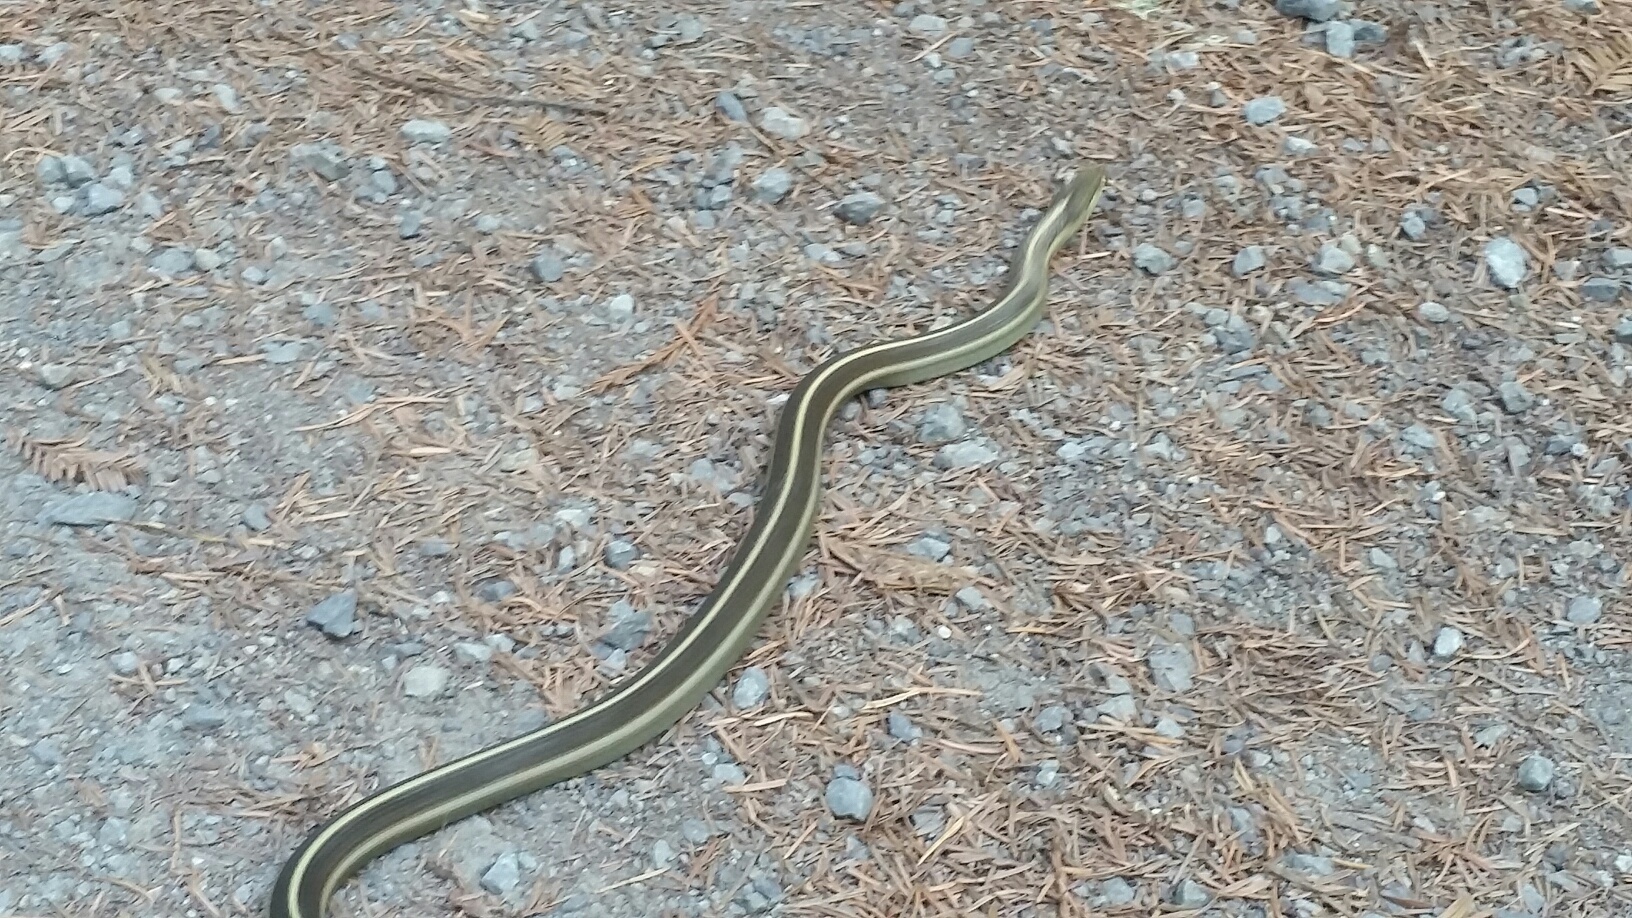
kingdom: Animalia
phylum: Chordata
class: Squamata
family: Colubridae
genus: Thamnophis
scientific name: Thamnophis elegans
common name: Western terrestrial garter snake
